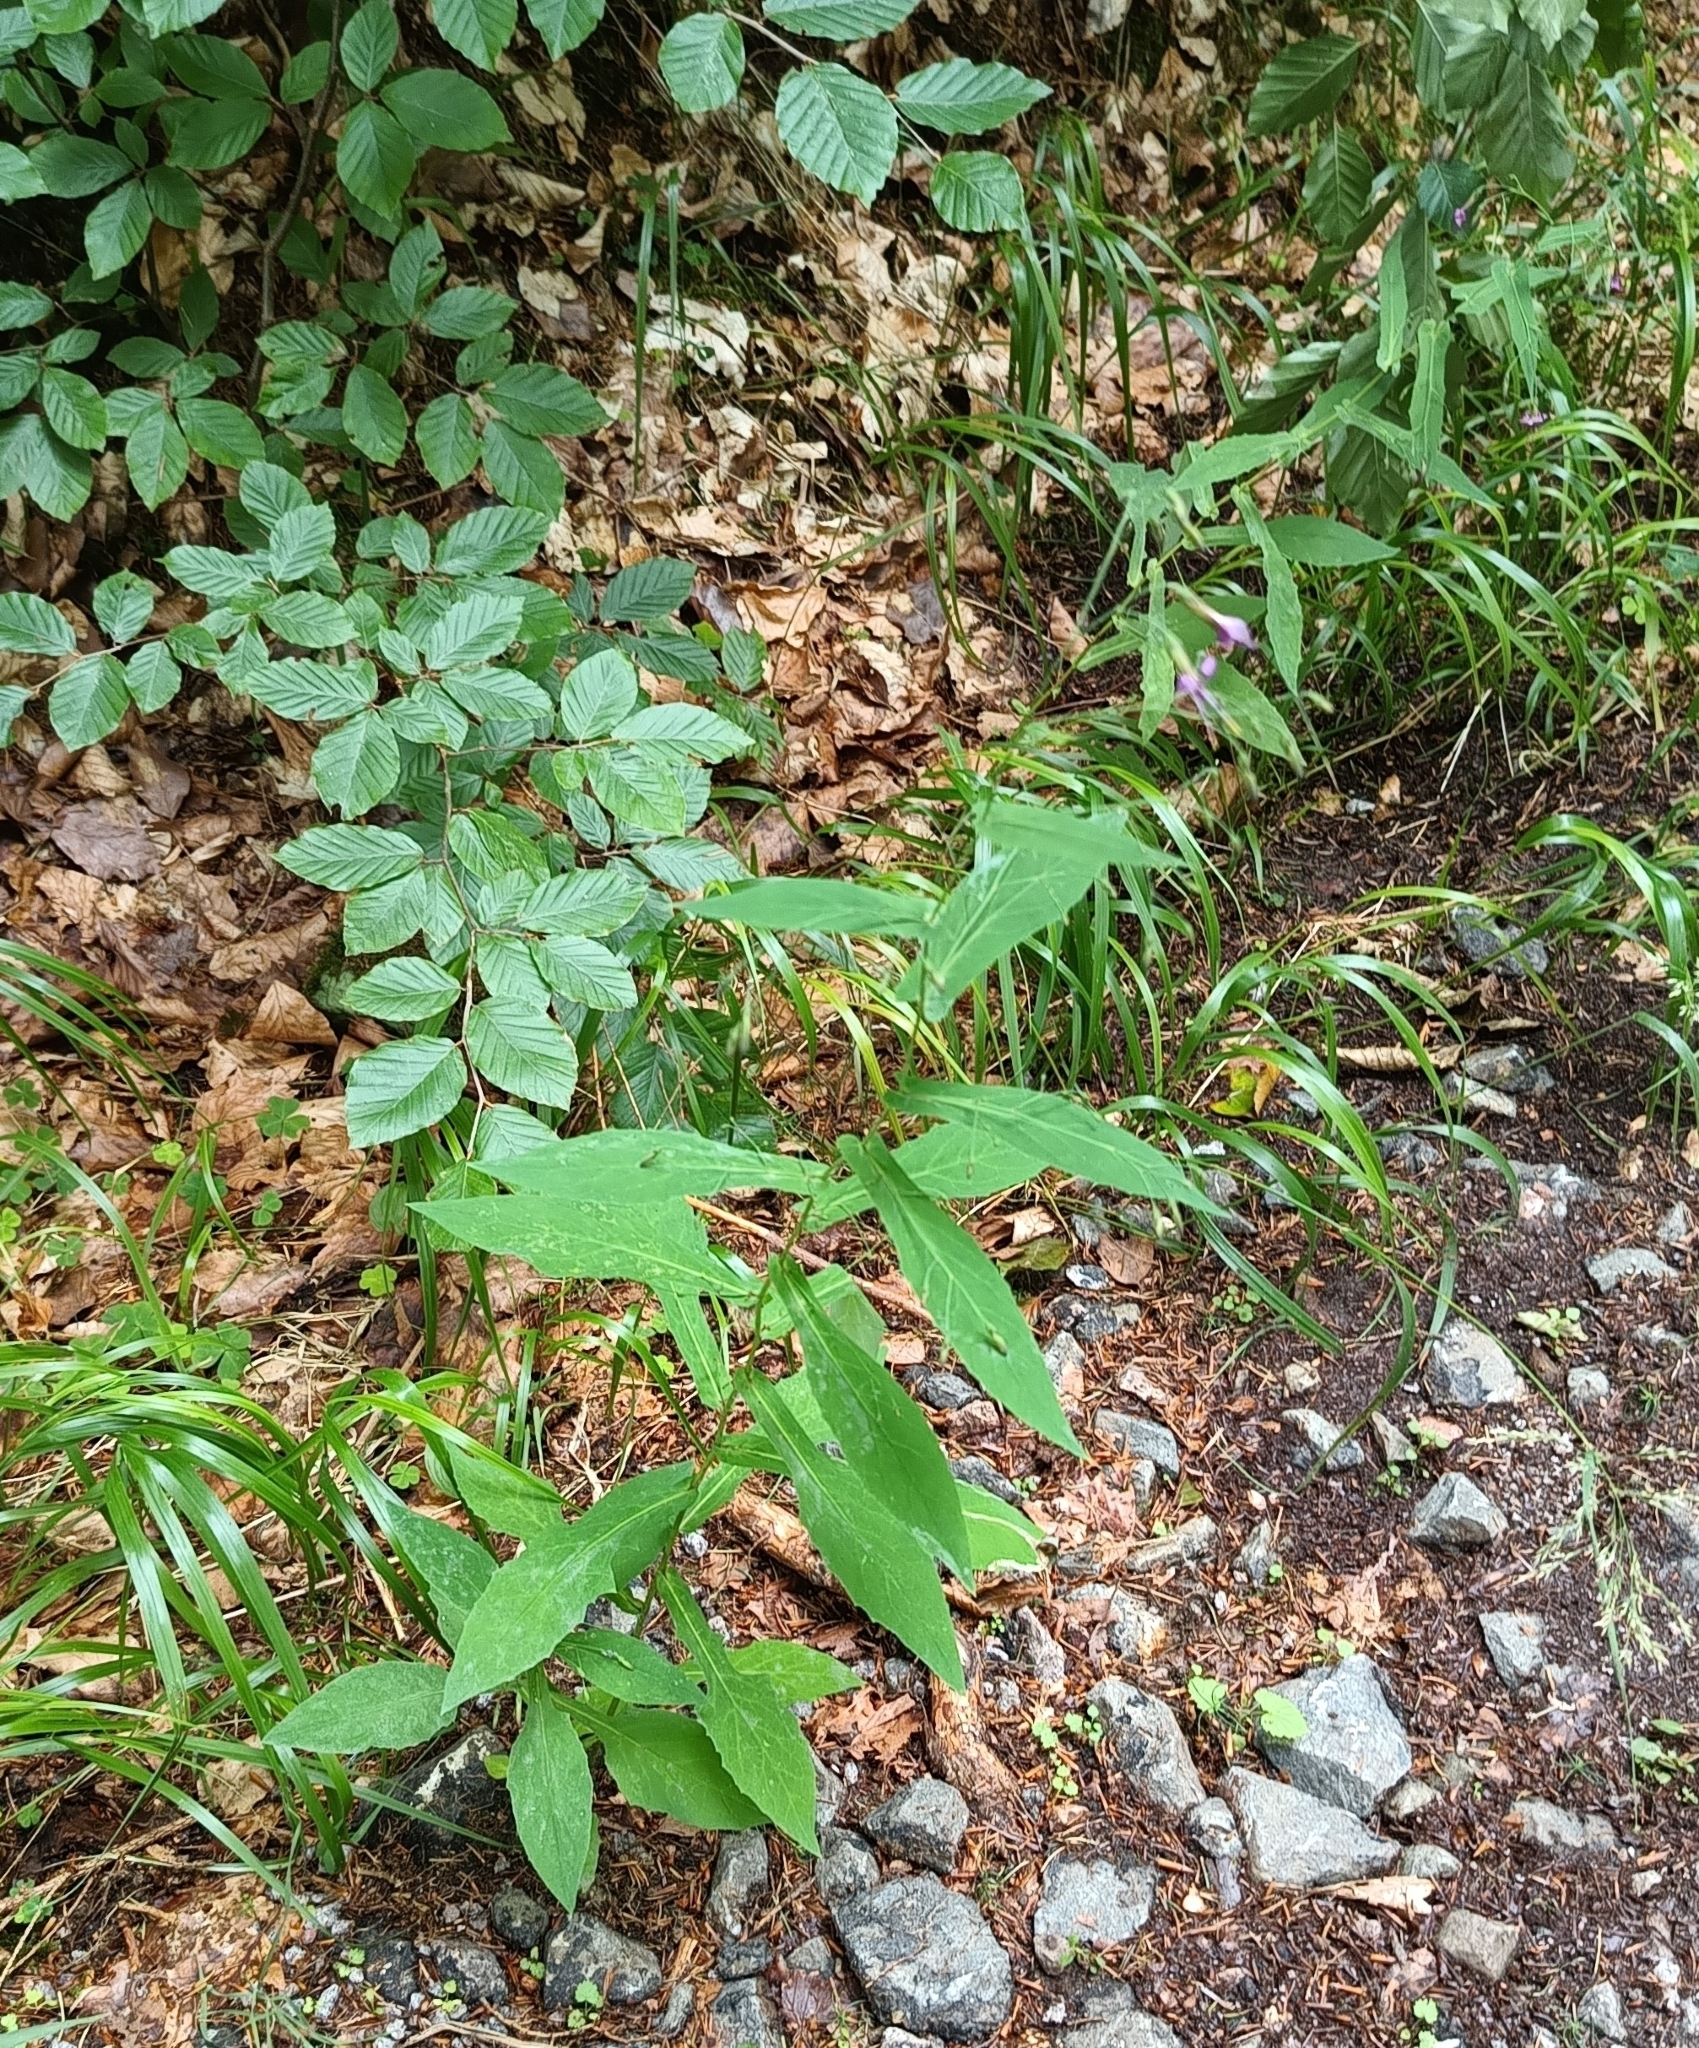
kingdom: Plantae
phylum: Tracheophyta
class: Magnoliopsida
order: Asterales
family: Asteraceae
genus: Prenanthes
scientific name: Prenanthes purpurea
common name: Purple lettuce
